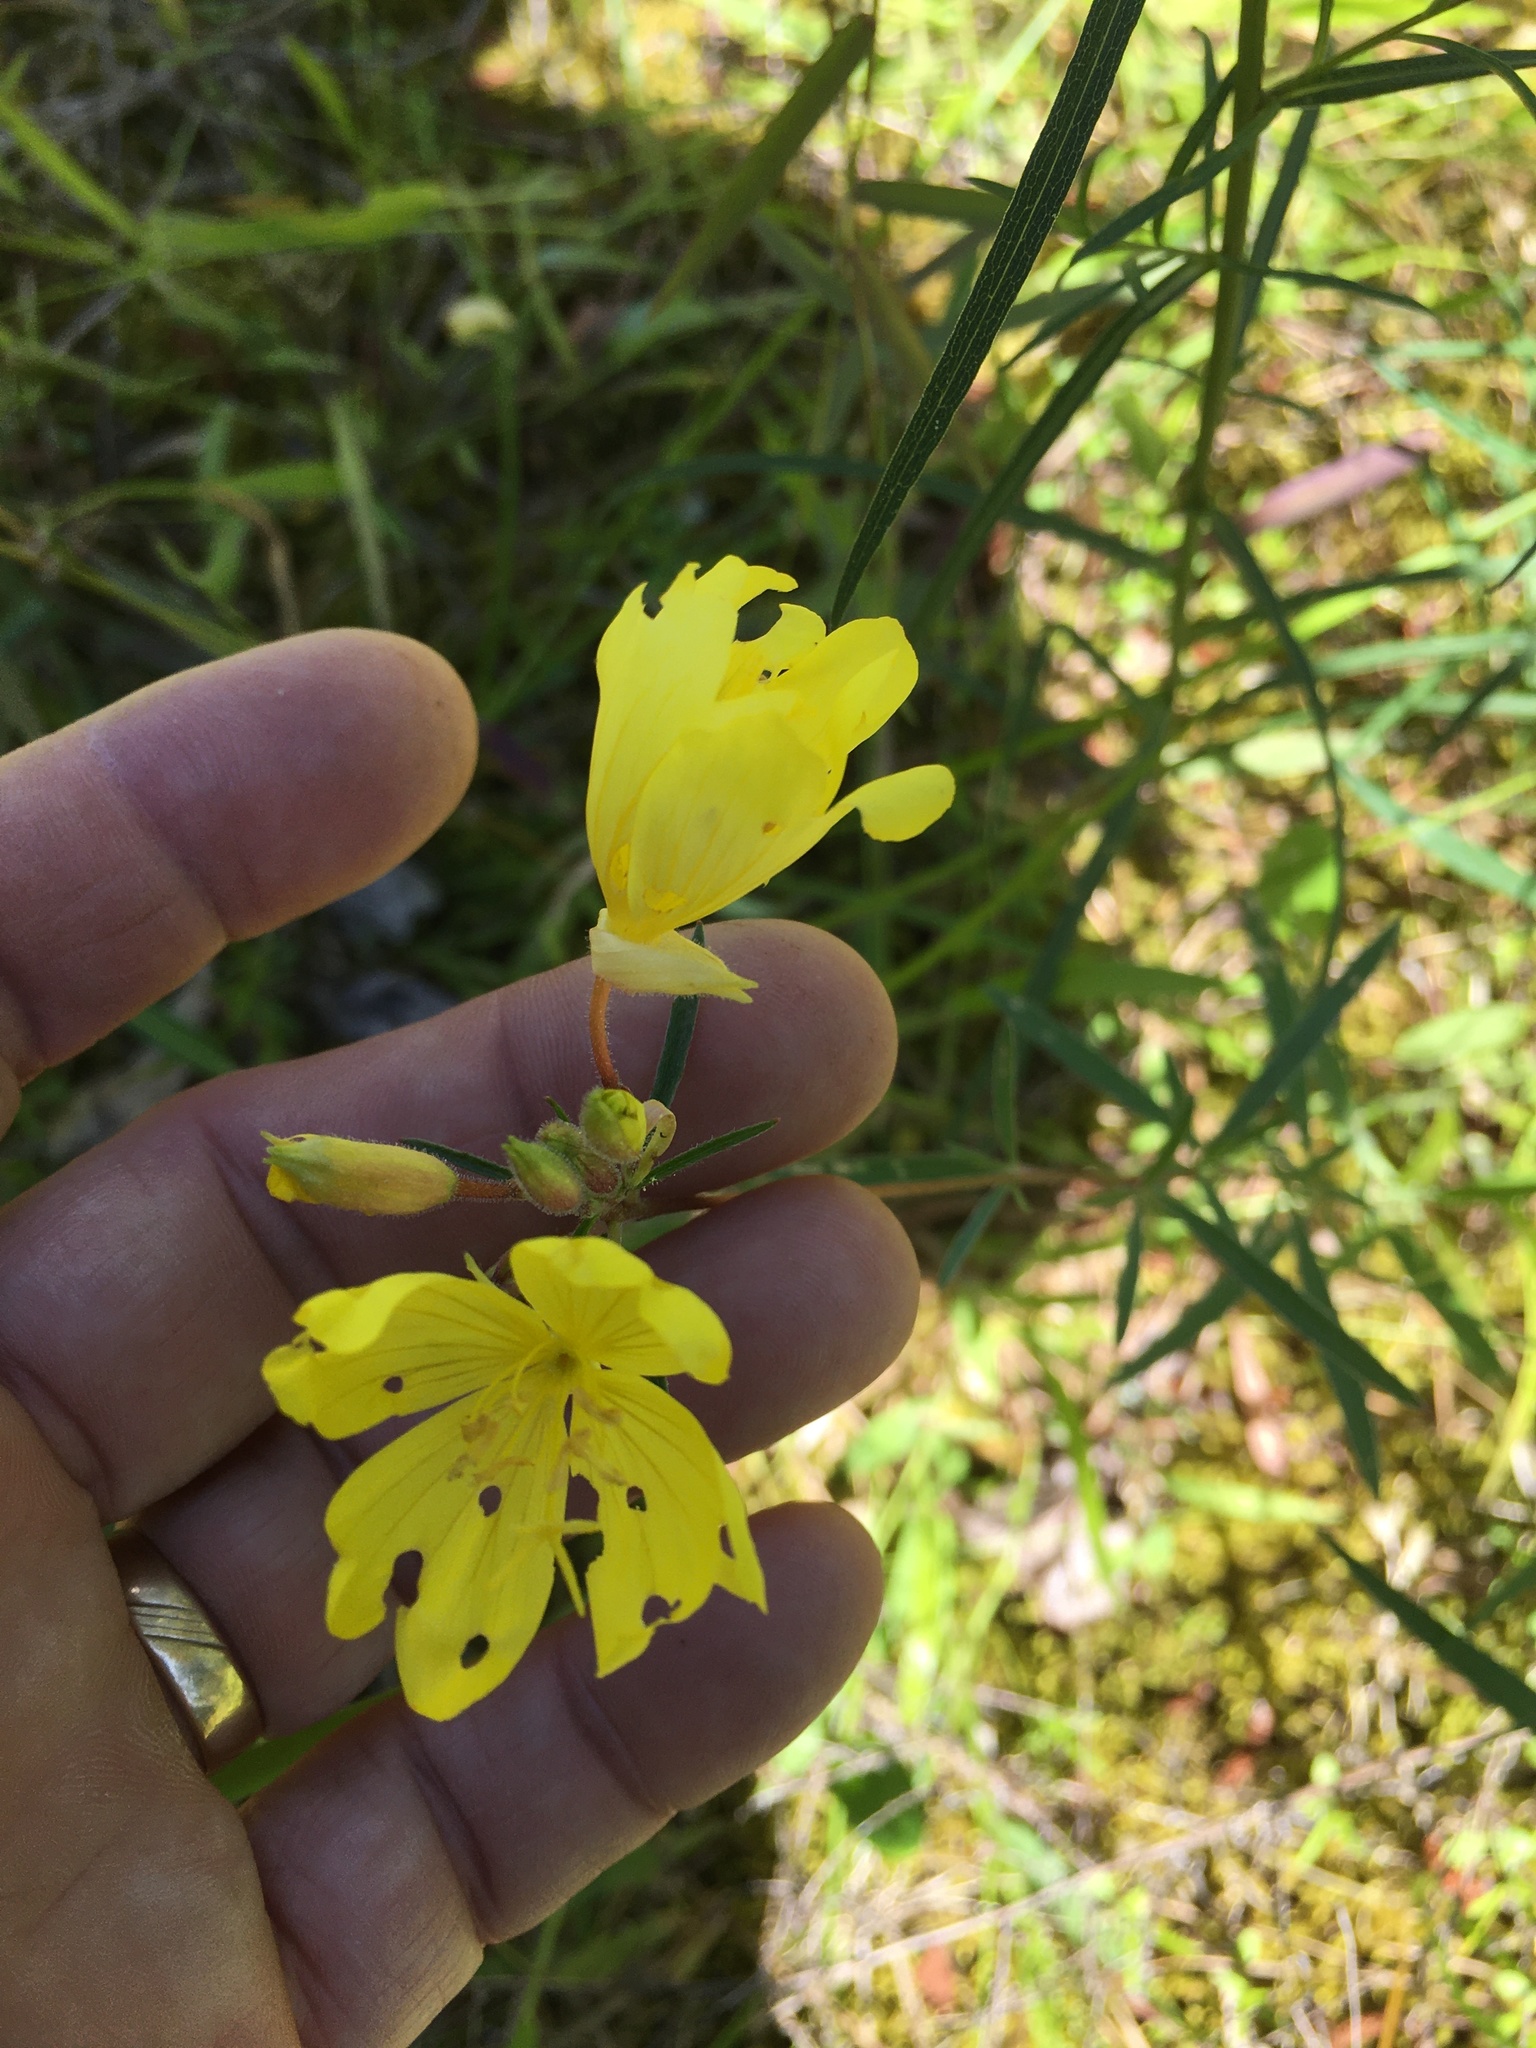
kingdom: Plantae
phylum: Tracheophyta
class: Magnoliopsida
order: Myrtales
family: Onagraceae
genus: Oenothera
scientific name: Oenothera fruticosa
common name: Southern sundrops
